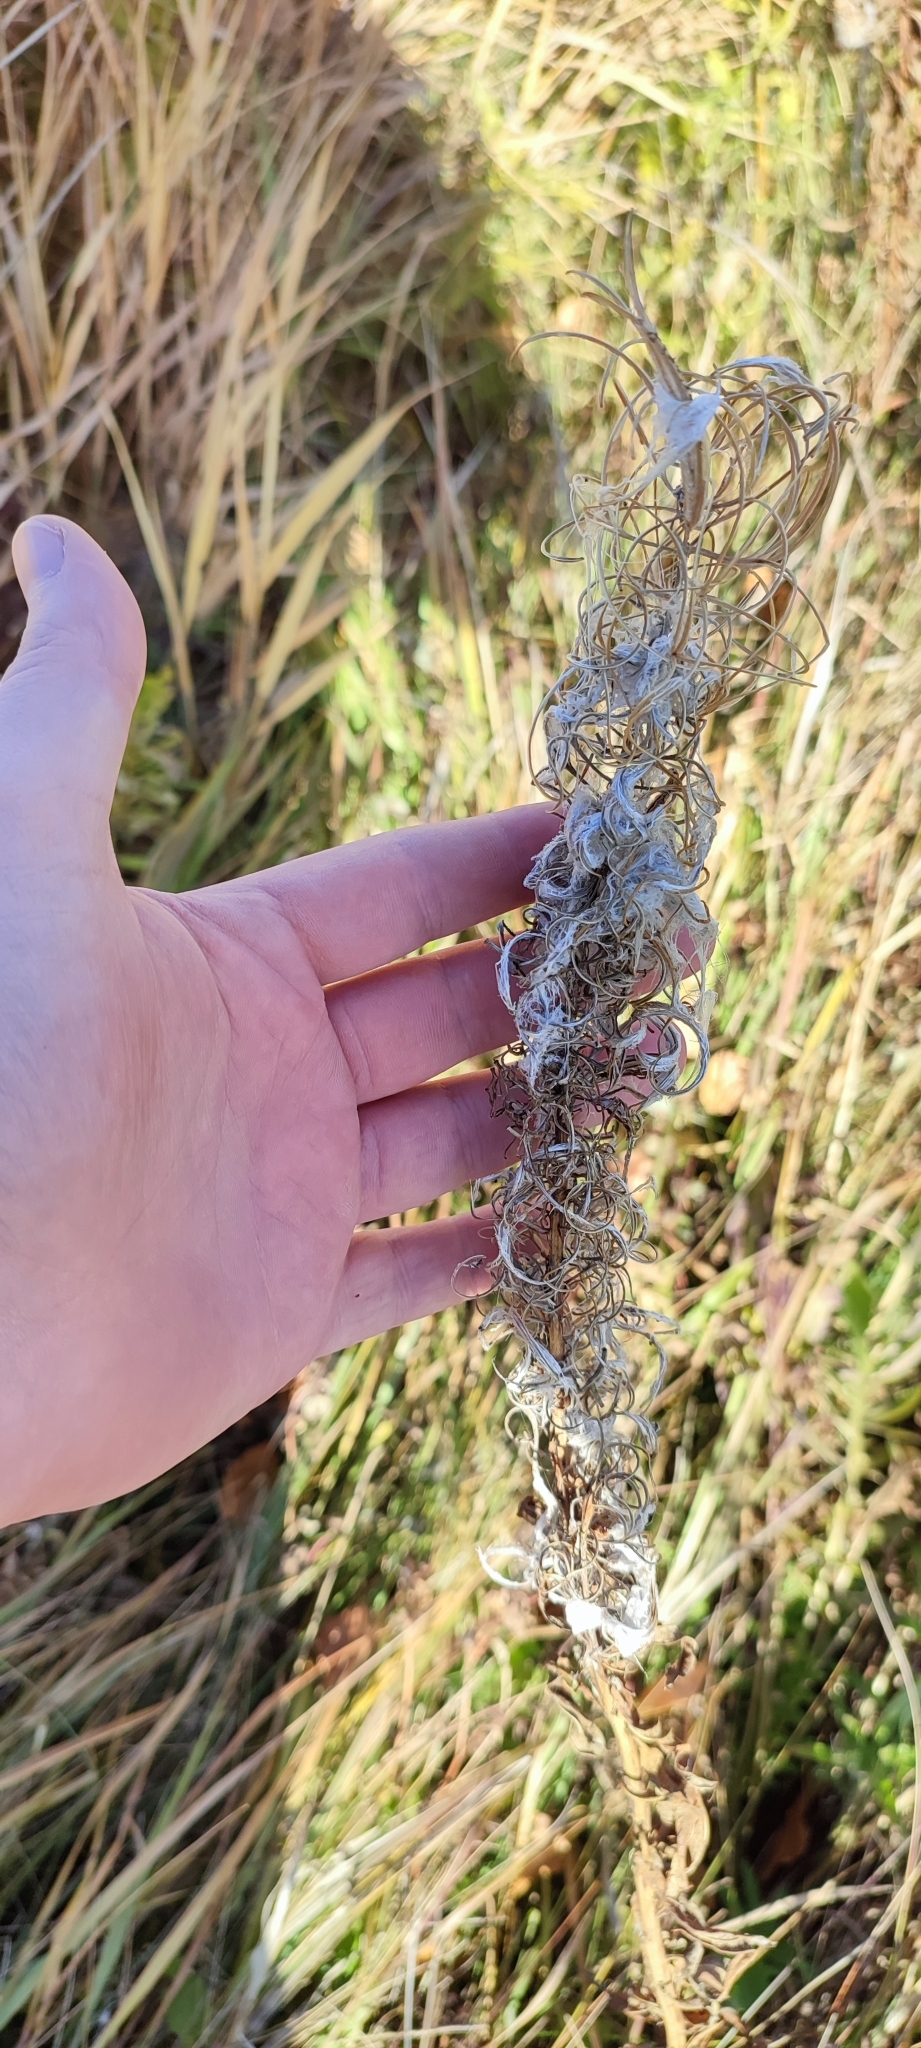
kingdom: Plantae
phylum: Tracheophyta
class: Magnoliopsida
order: Myrtales
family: Onagraceae
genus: Chamaenerion
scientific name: Chamaenerion angustifolium
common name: Fireweed
